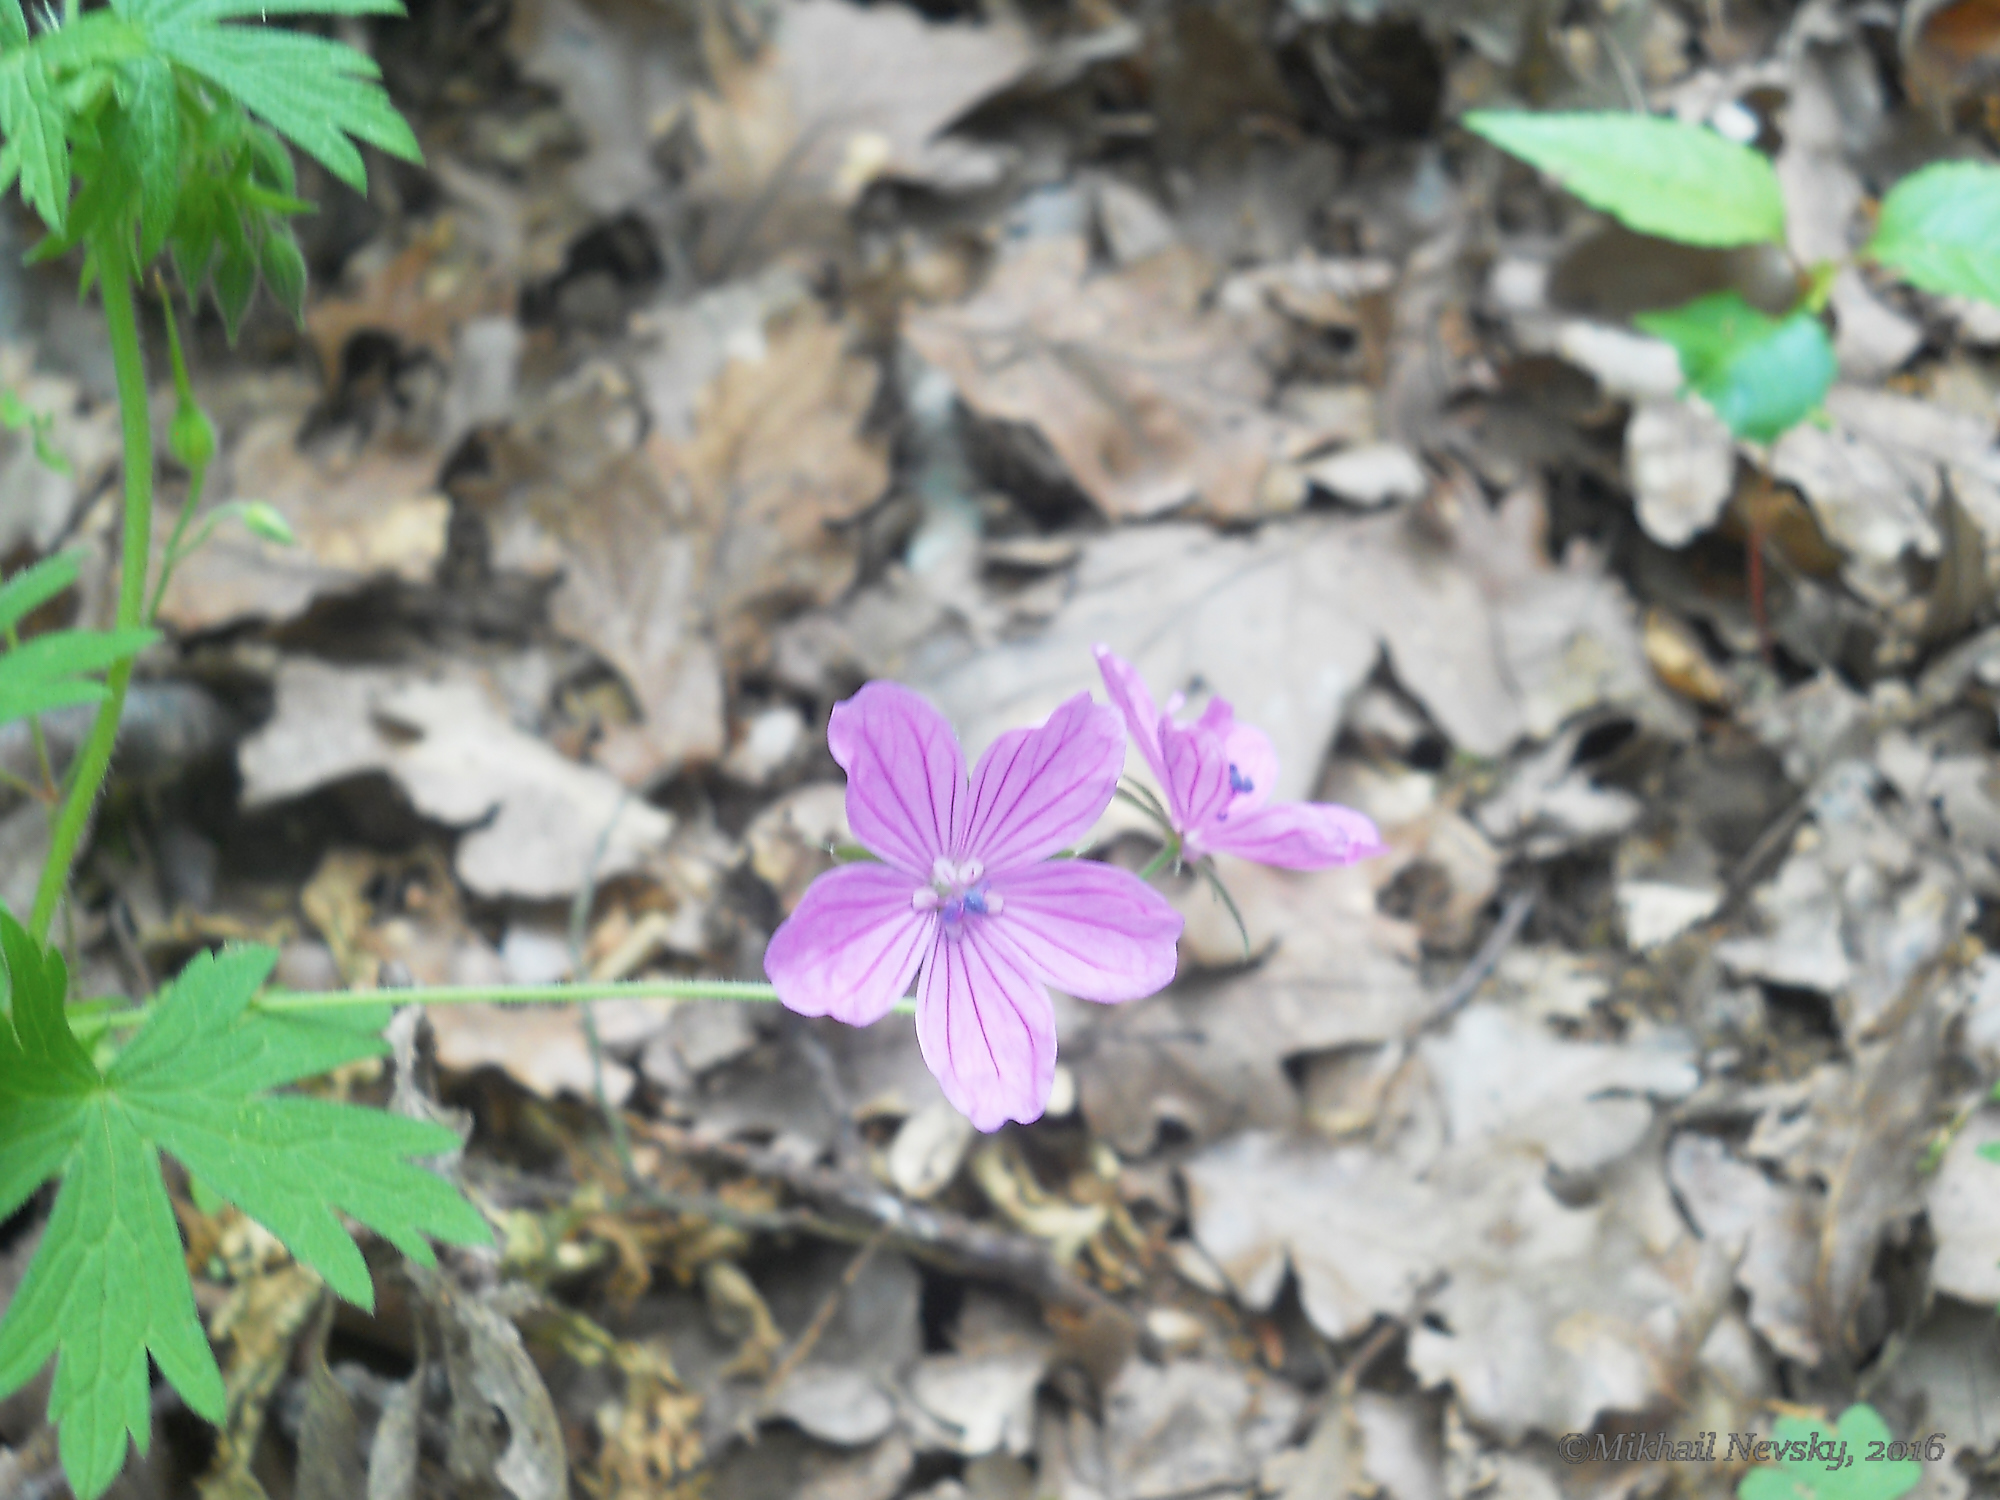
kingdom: Plantae
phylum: Tracheophyta
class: Magnoliopsida
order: Geraniales
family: Geraniaceae
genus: Geranium
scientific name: Geranium asphodeloides
